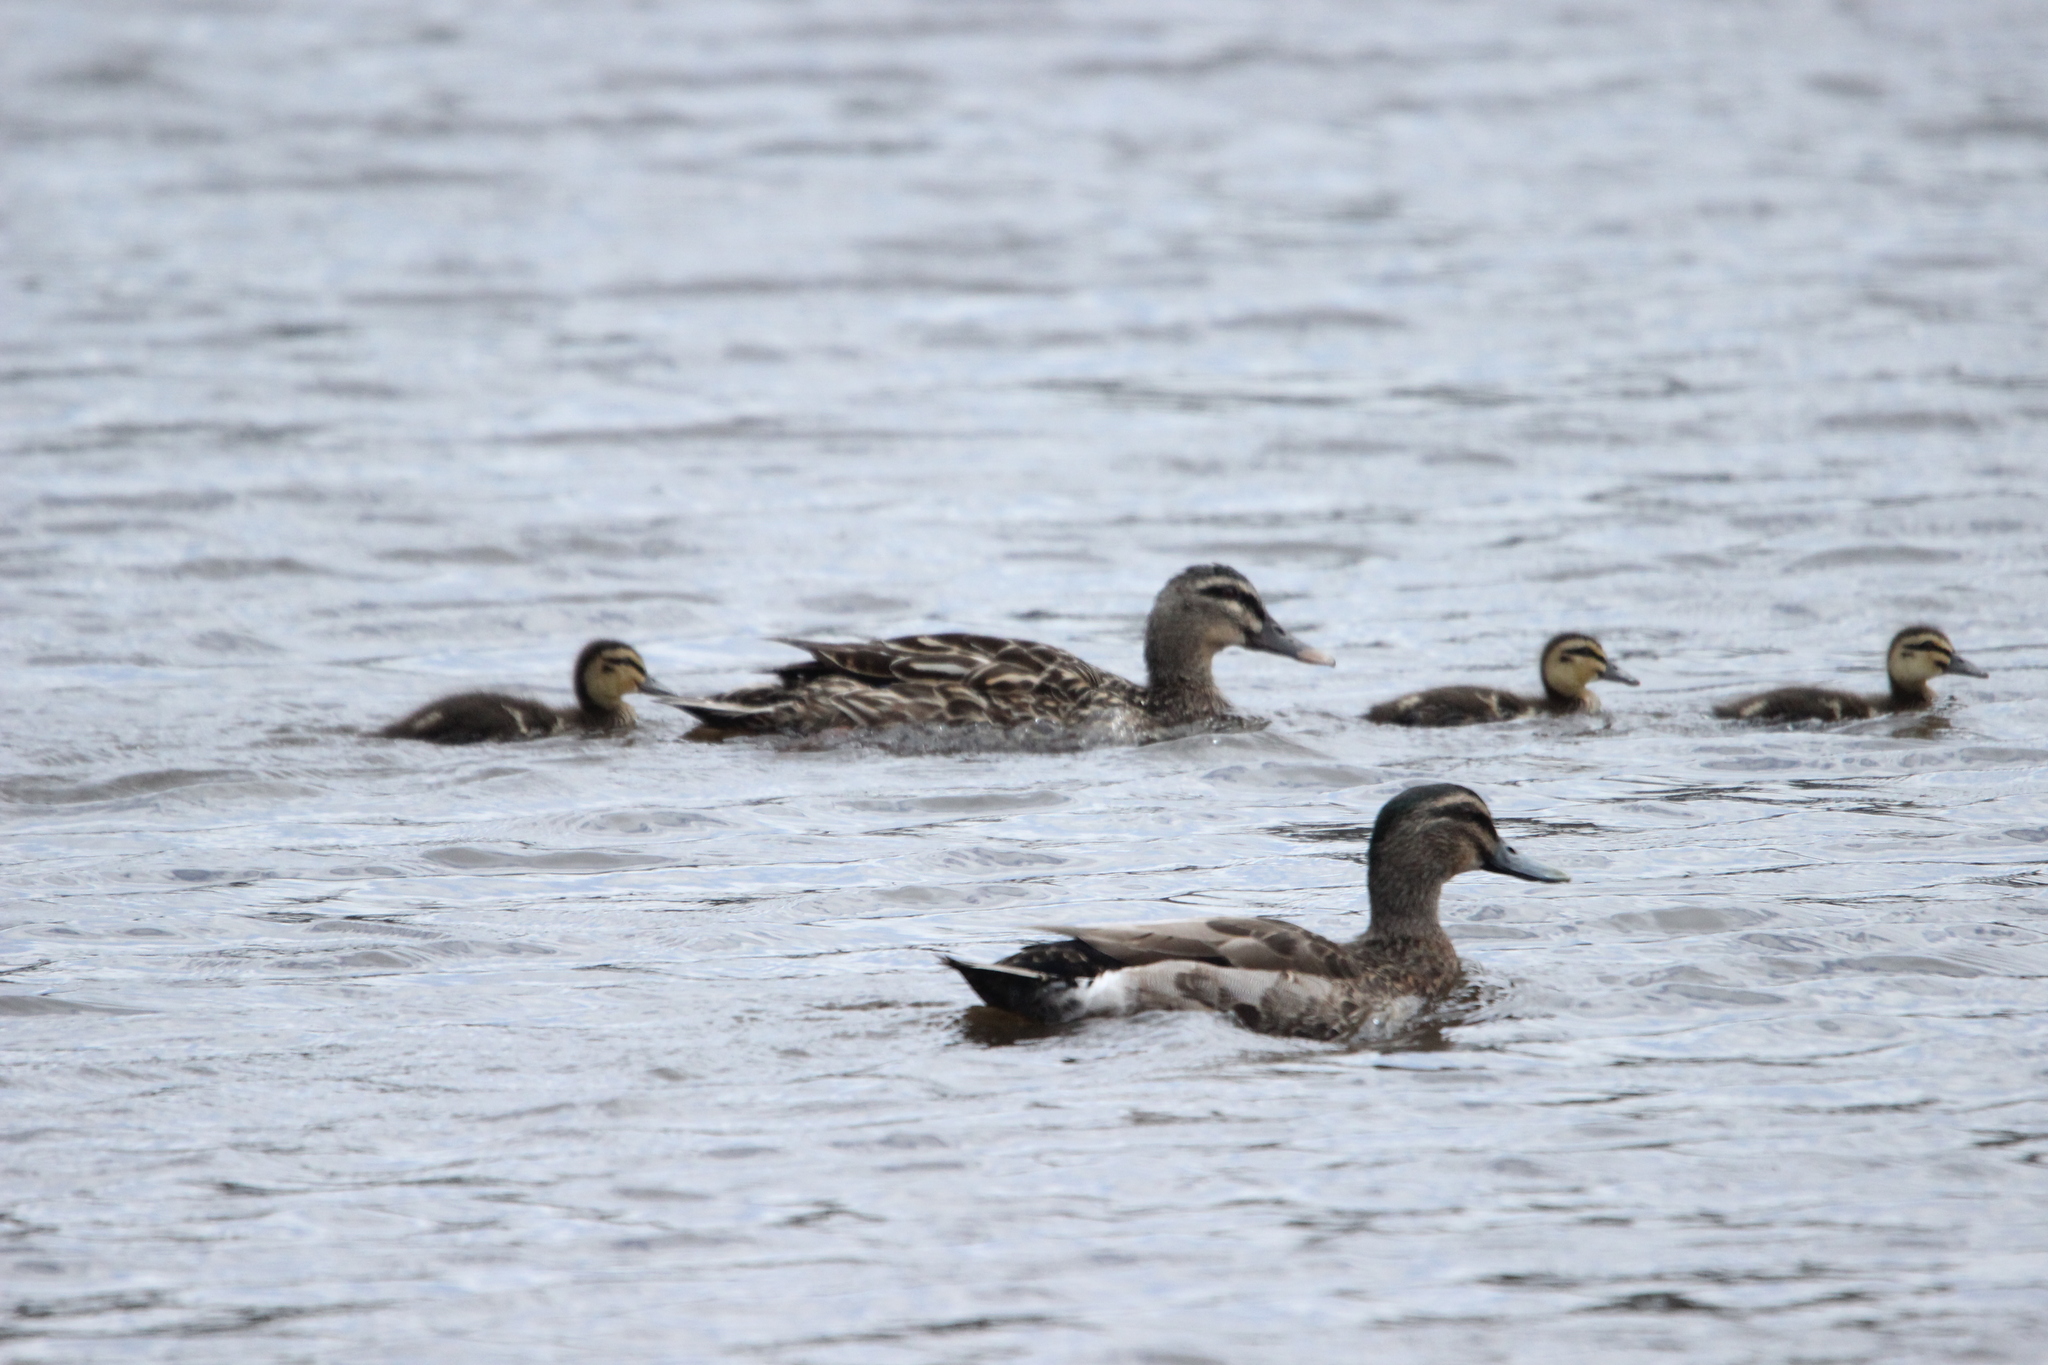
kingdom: Animalia
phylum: Chordata
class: Aves
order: Anseriformes
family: Anatidae
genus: Anas
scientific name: Anas
